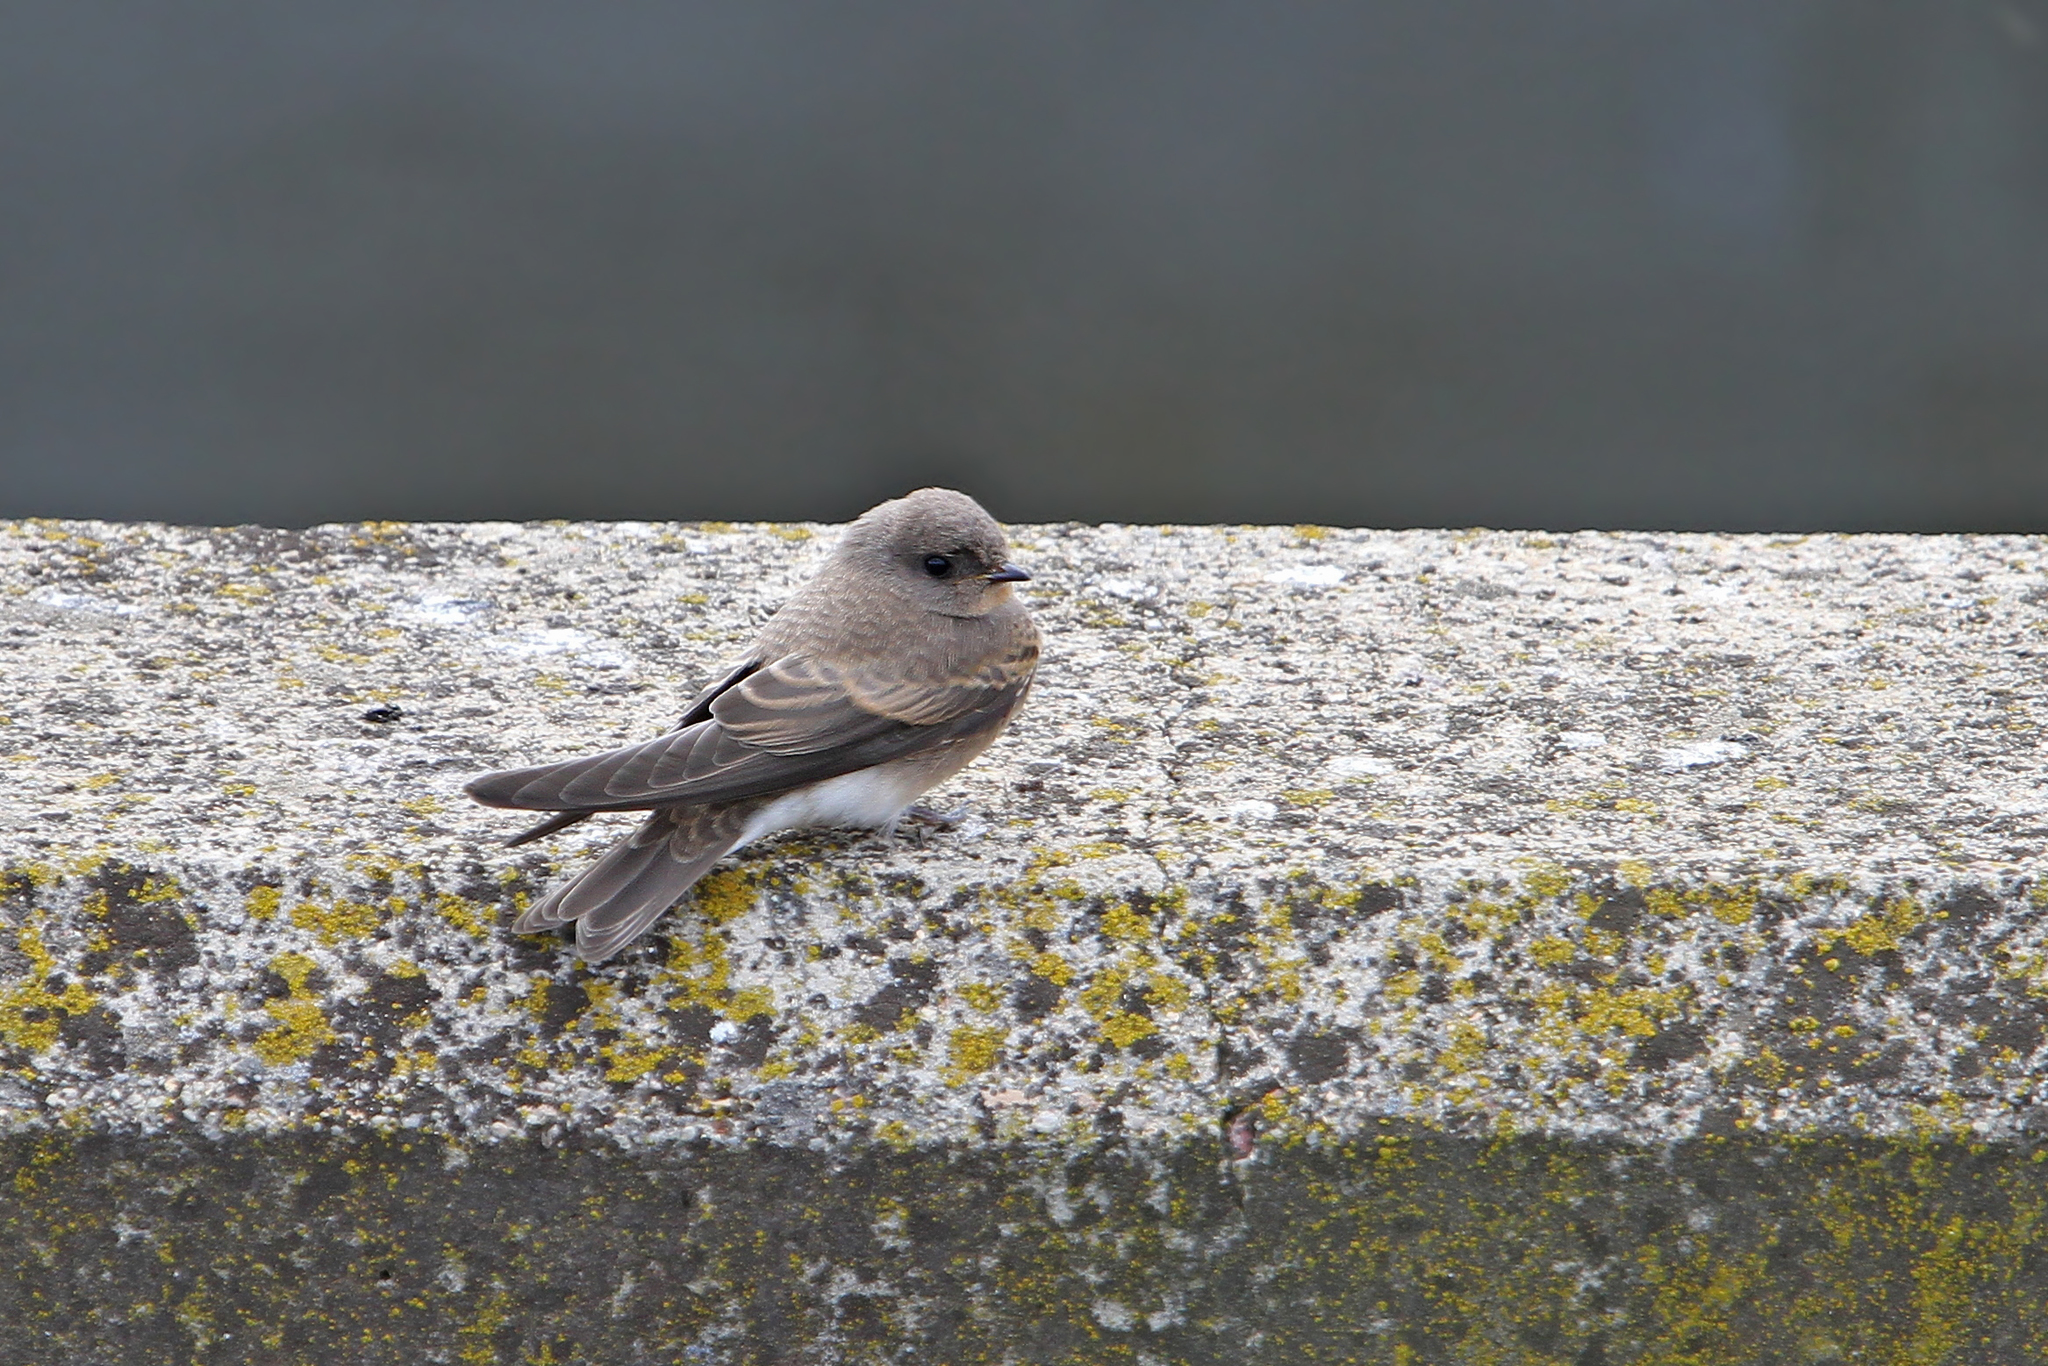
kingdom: Animalia
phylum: Chordata
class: Aves
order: Passeriformes
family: Hirundinidae
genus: Riparia
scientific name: Riparia paludicola
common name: Brown-throated martin
